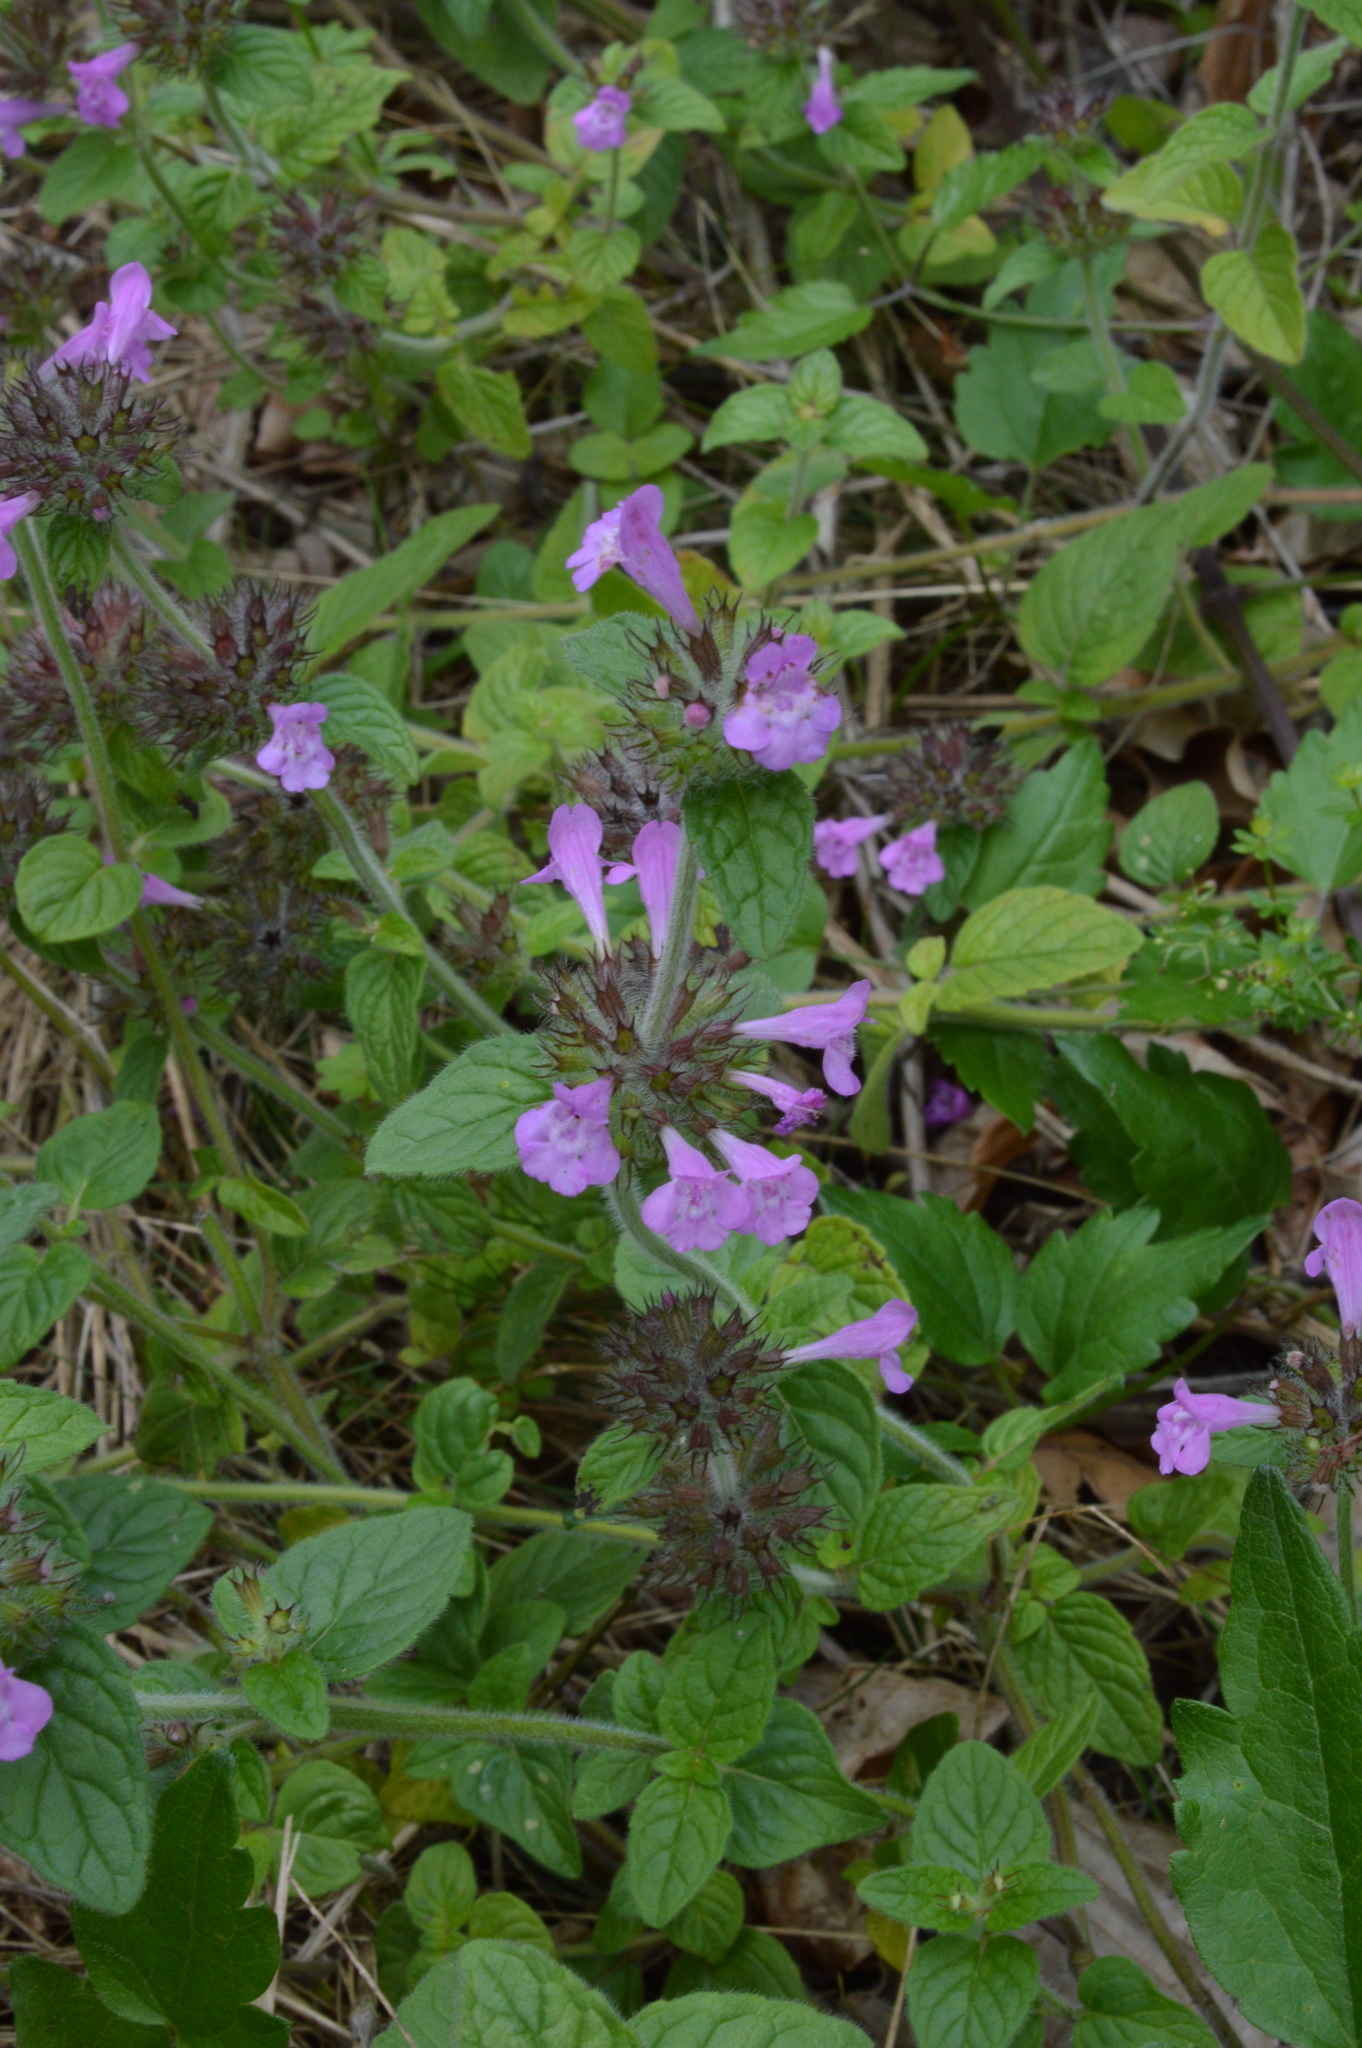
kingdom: Plantae
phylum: Tracheophyta
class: Magnoliopsida
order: Lamiales
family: Lamiaceae
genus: Clinopodium
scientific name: Clinopodium vulgare
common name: Wild basil
